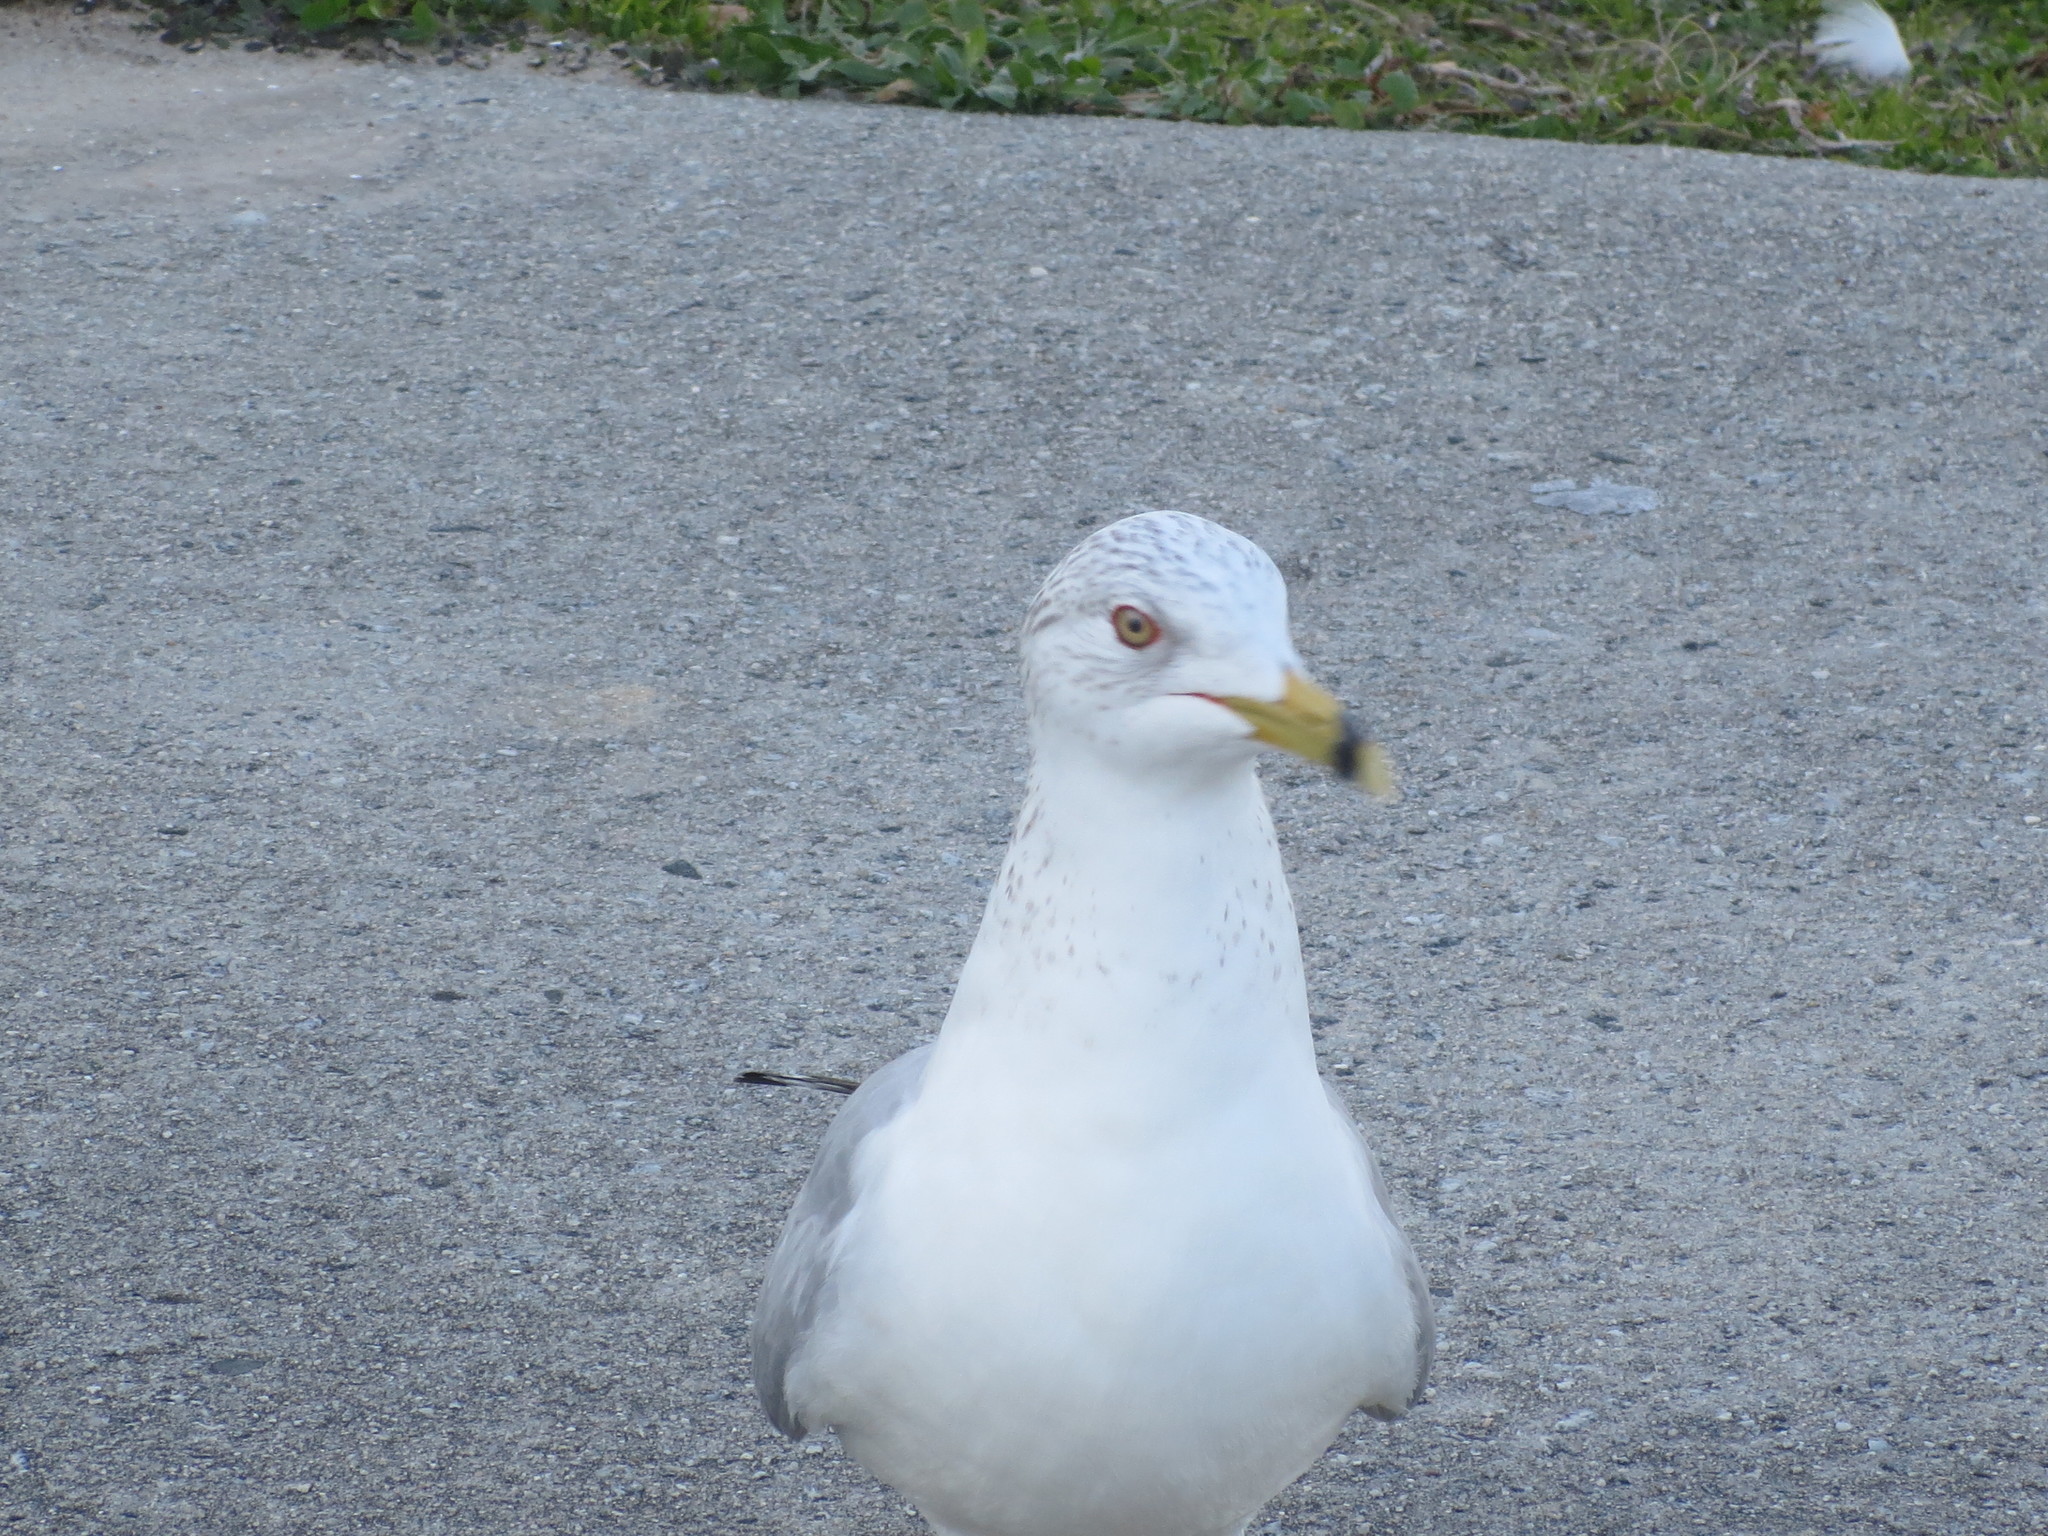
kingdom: Animalia
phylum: Chordata
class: Aves
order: Charadriiformes
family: Laridae
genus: Larus
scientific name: Larus delawarensis
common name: Ring-billed gull
